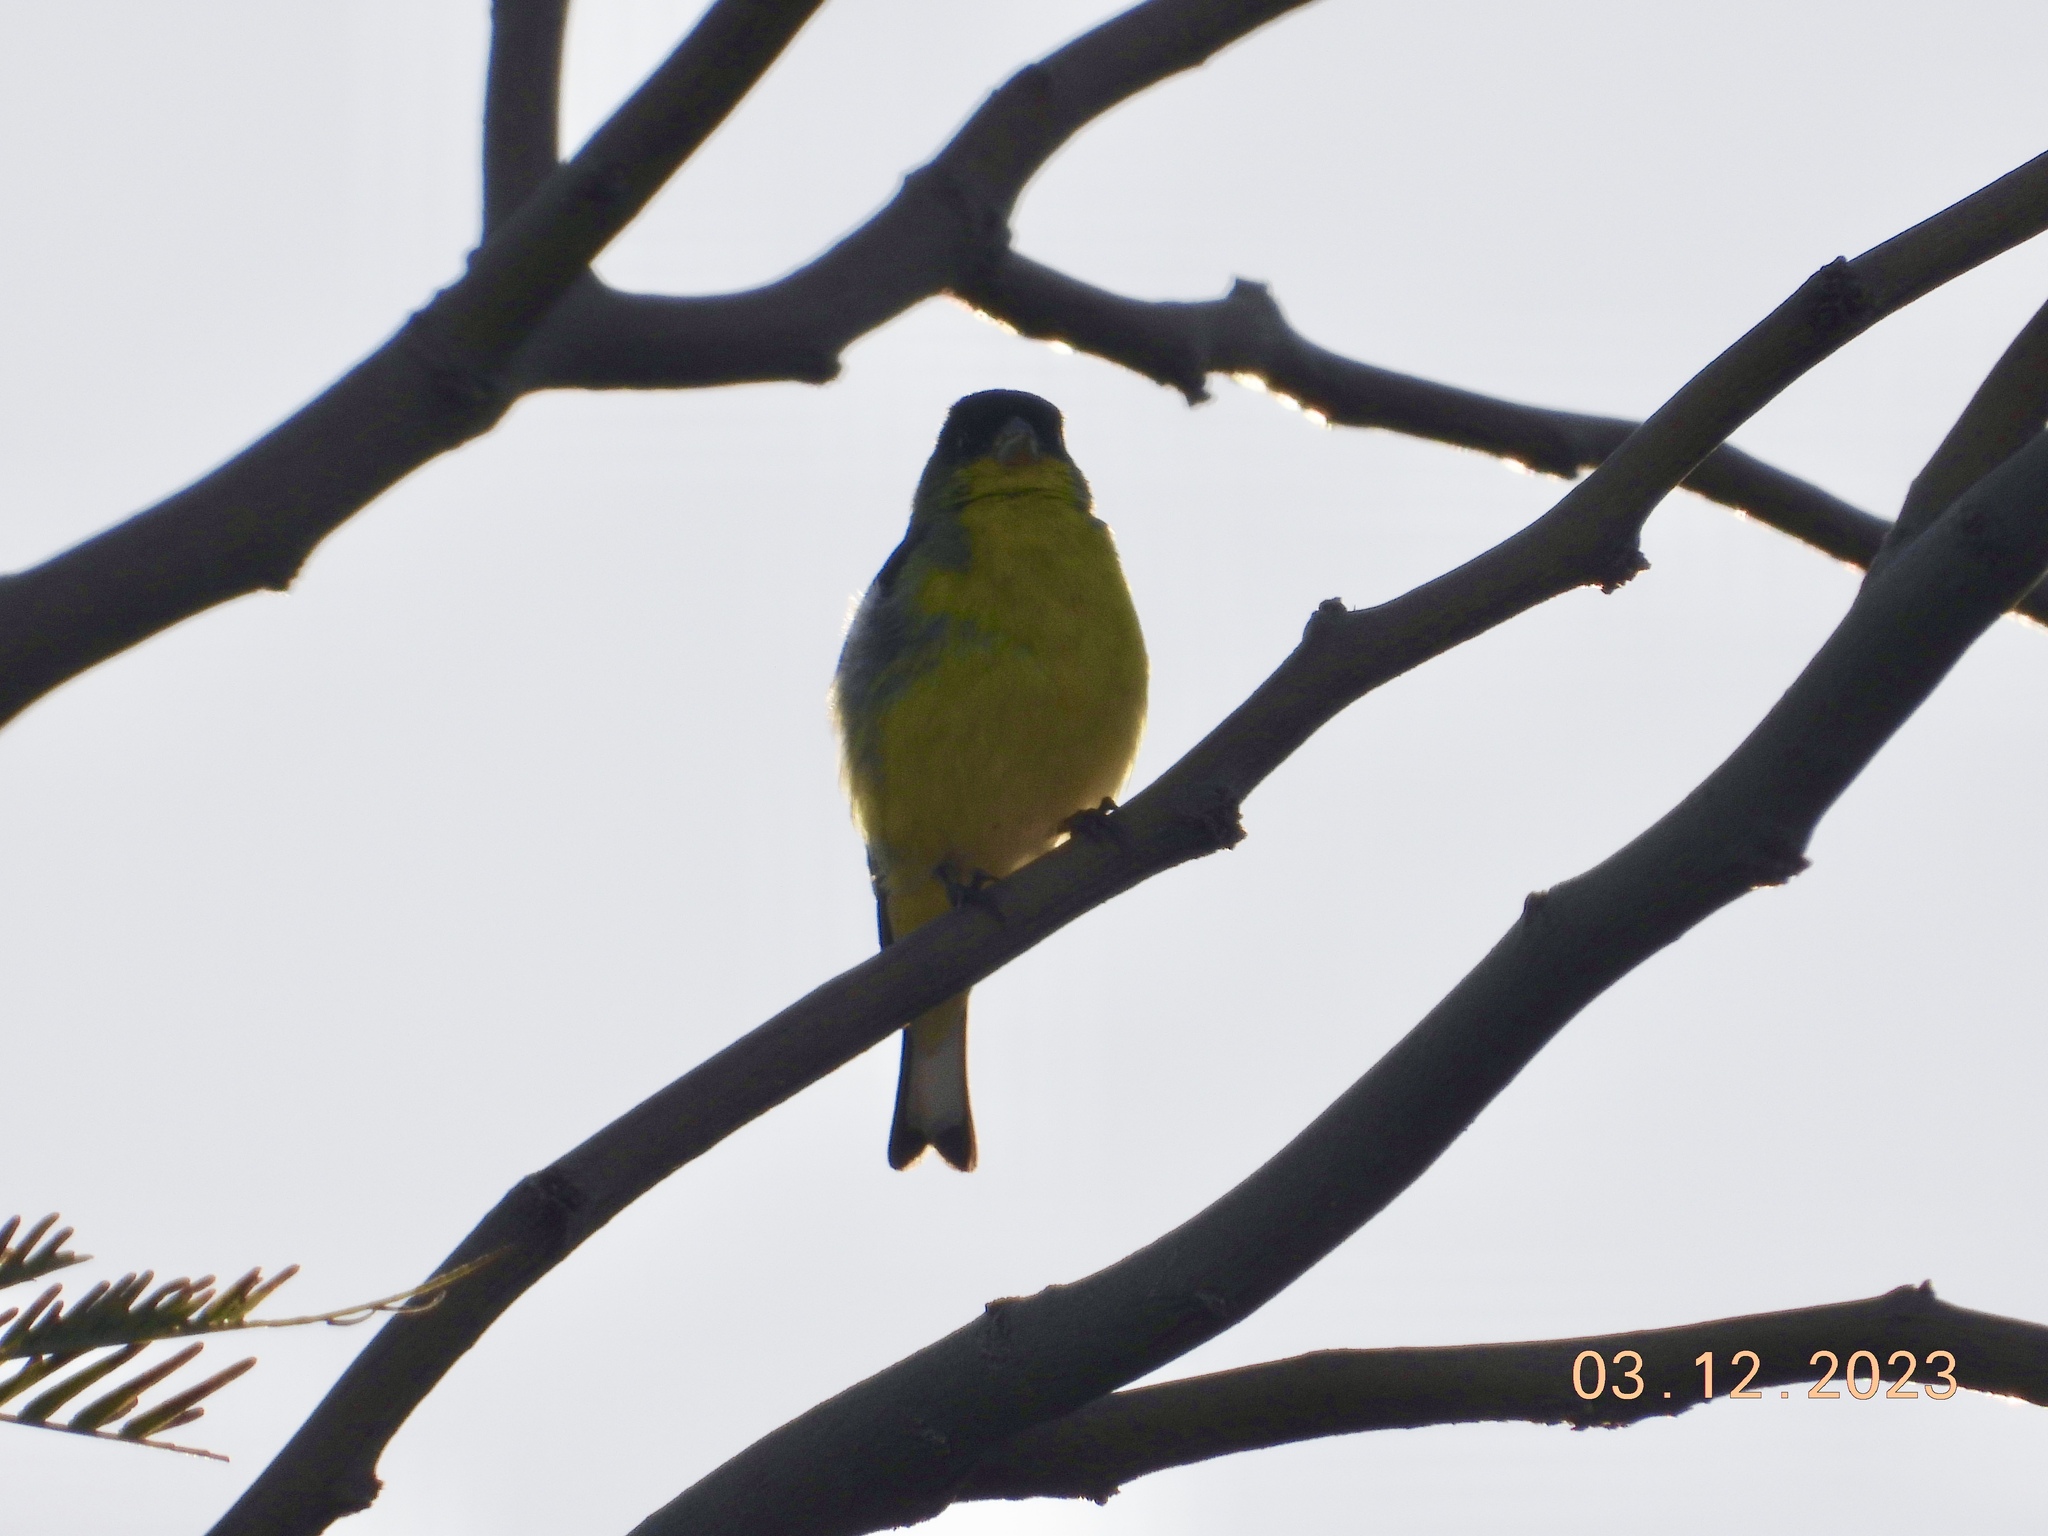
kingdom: Animalia
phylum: Chordata
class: Aves
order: Passeriformes
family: Fringillidae
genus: Spinus
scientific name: Spinus psaltria
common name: Lesser goldfinch
